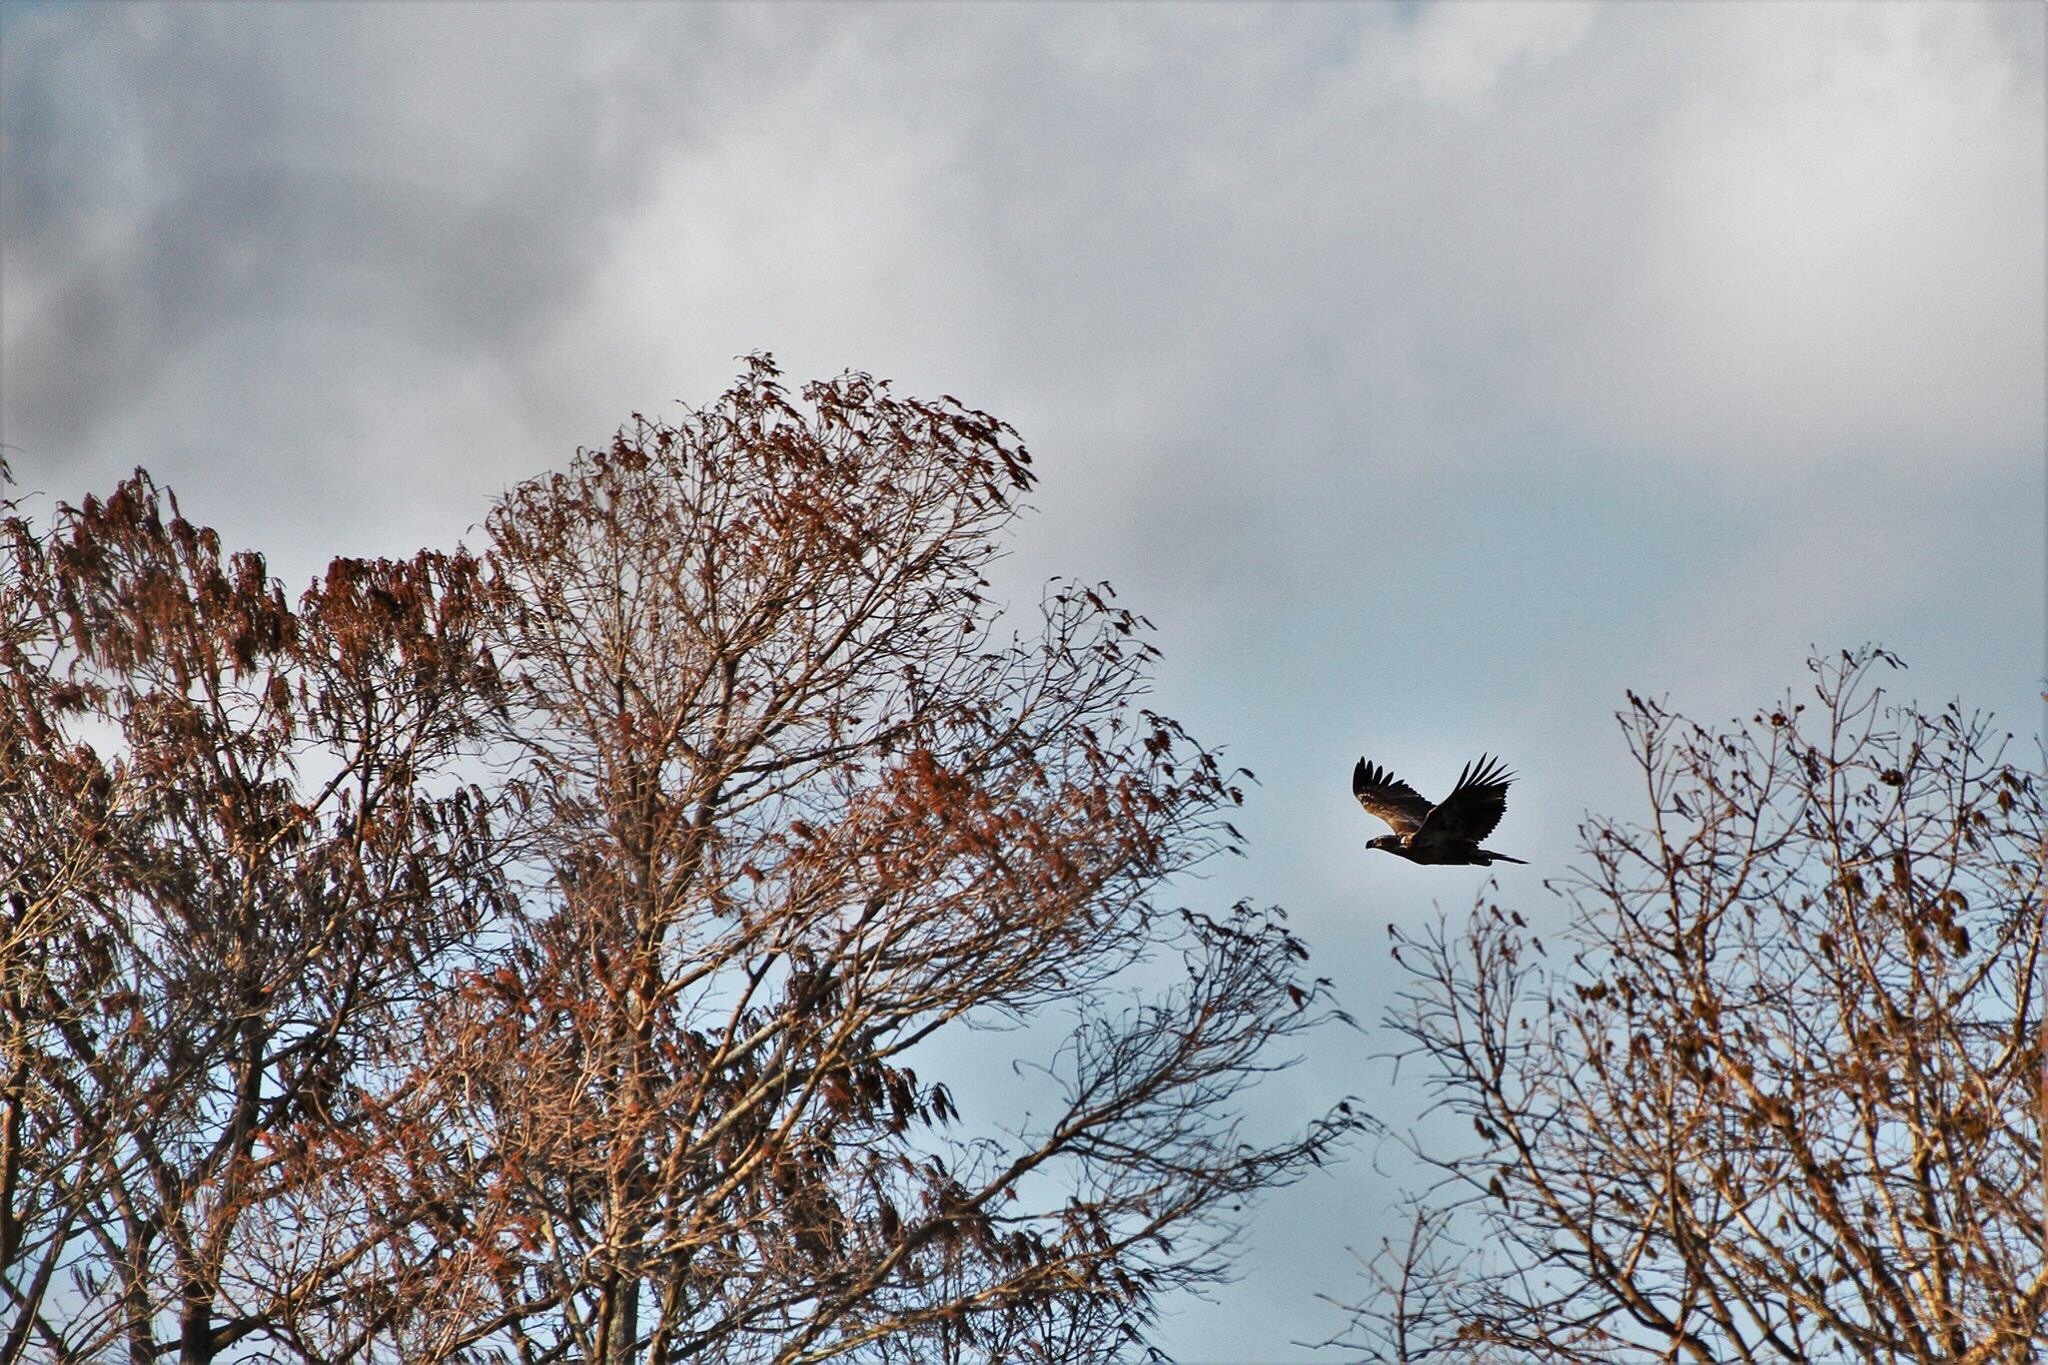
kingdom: Animalia
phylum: Chordata
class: Aves
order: Accipitriformes
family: Accipitridae
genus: Haliaeetus
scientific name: Haliaeetus leucocephalus
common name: Bald eagle
